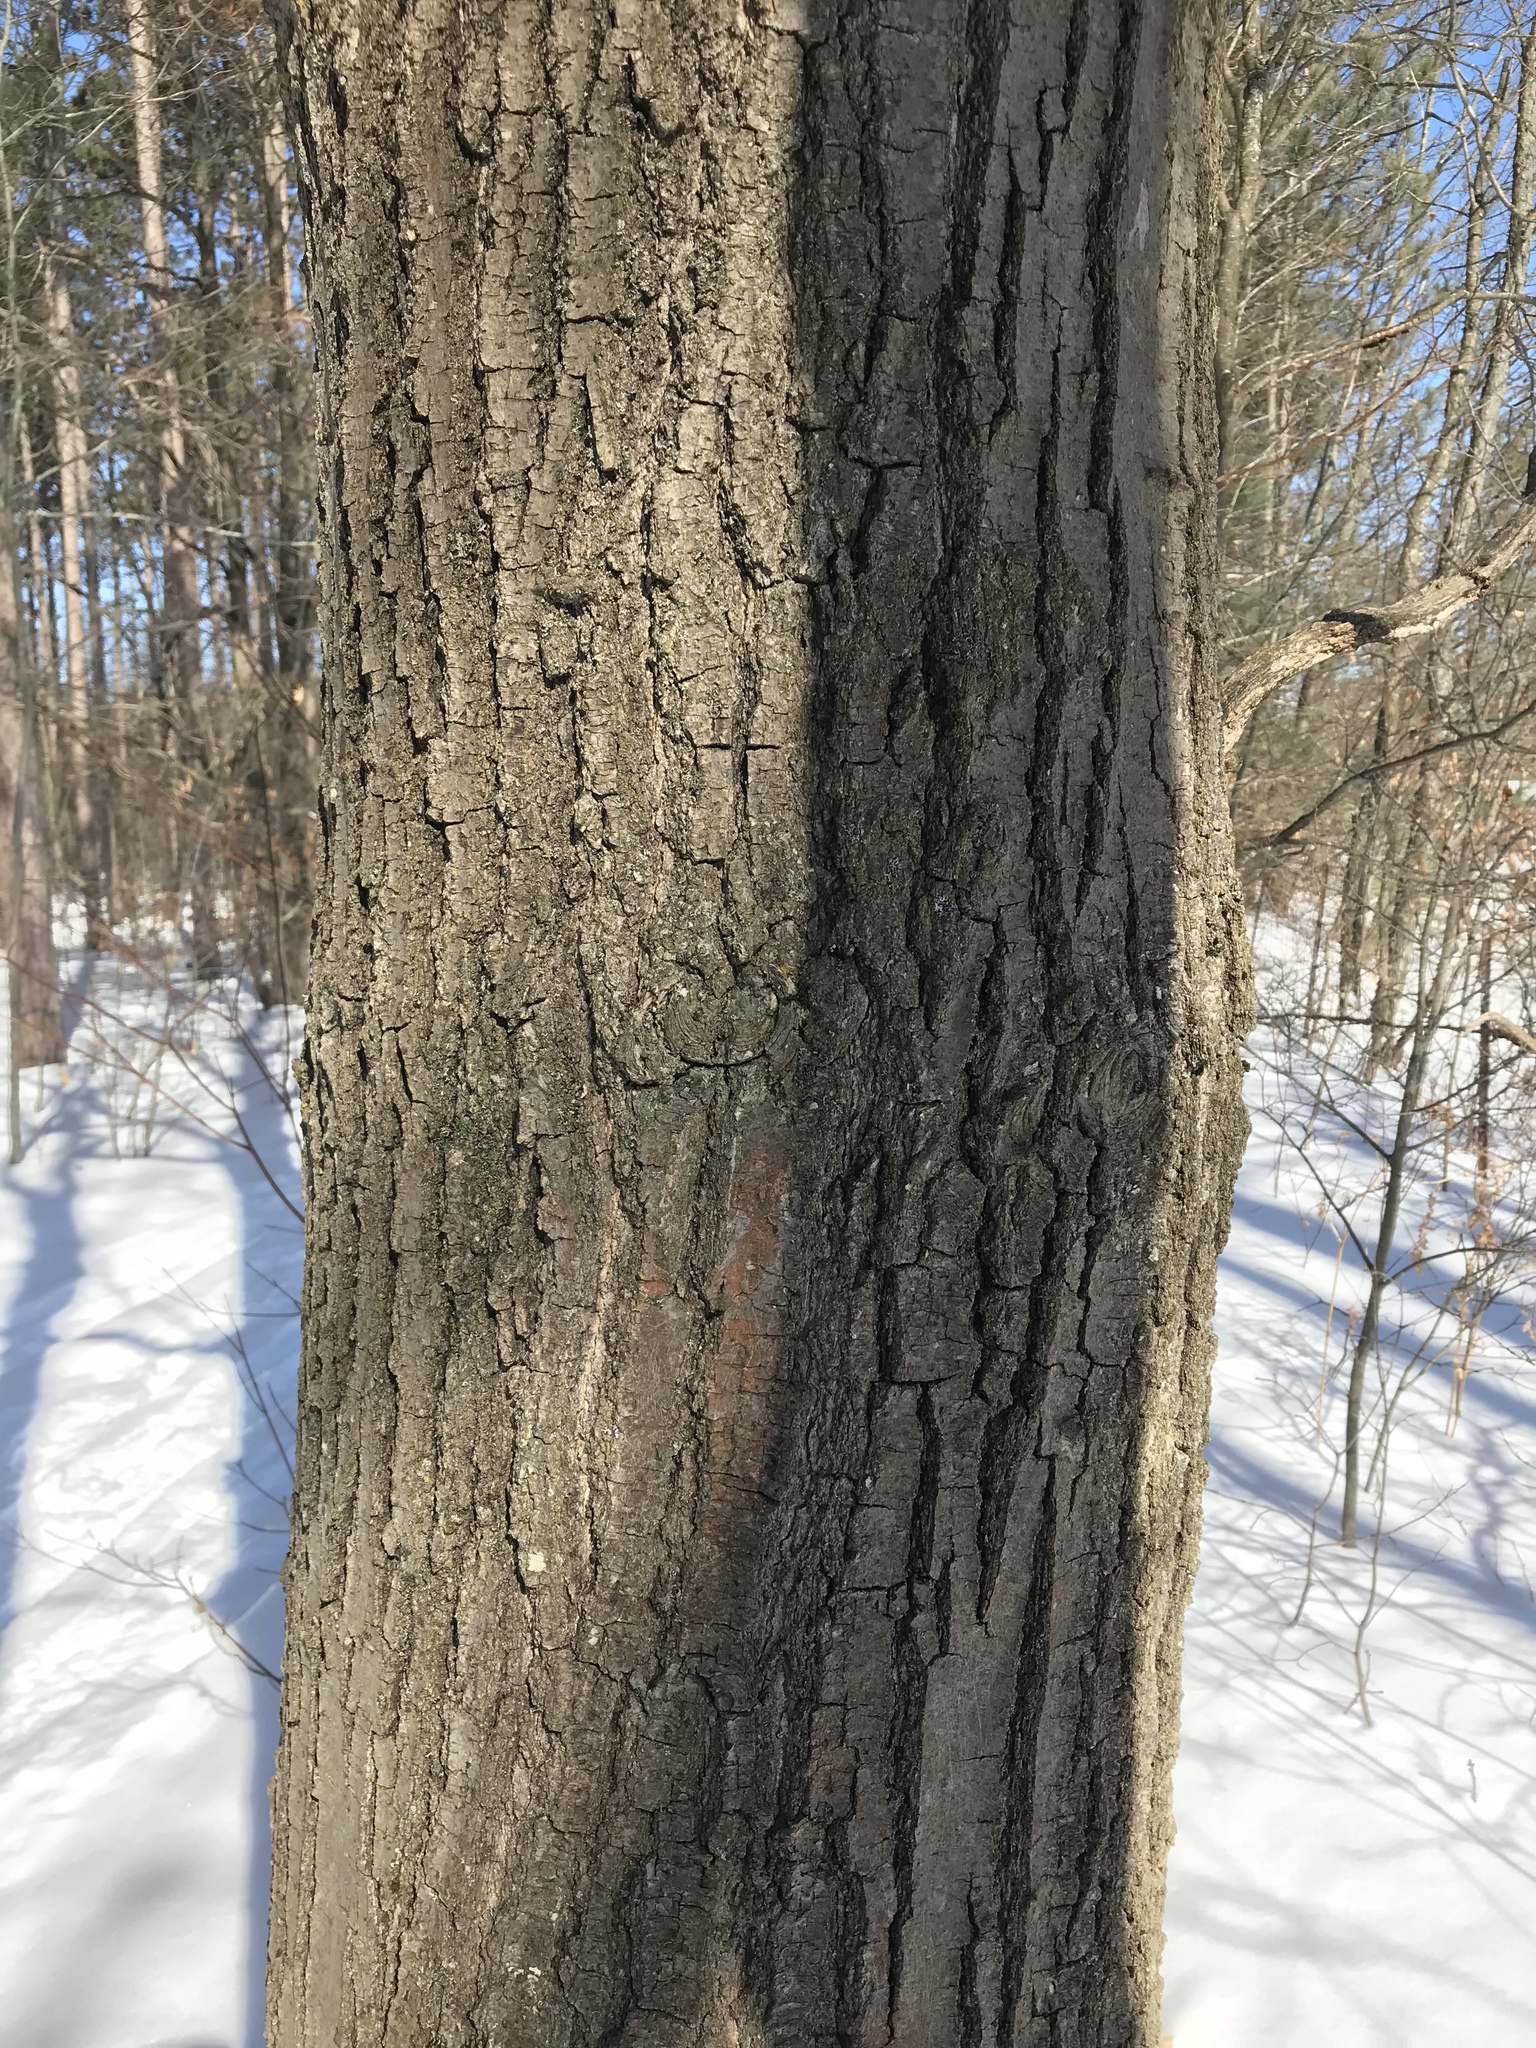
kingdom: Plantae
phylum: Tracheophyta
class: Magnoliopsida
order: Fagales
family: Fagaceae
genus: Quercus
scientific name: Quercus rubra
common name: Red oak
